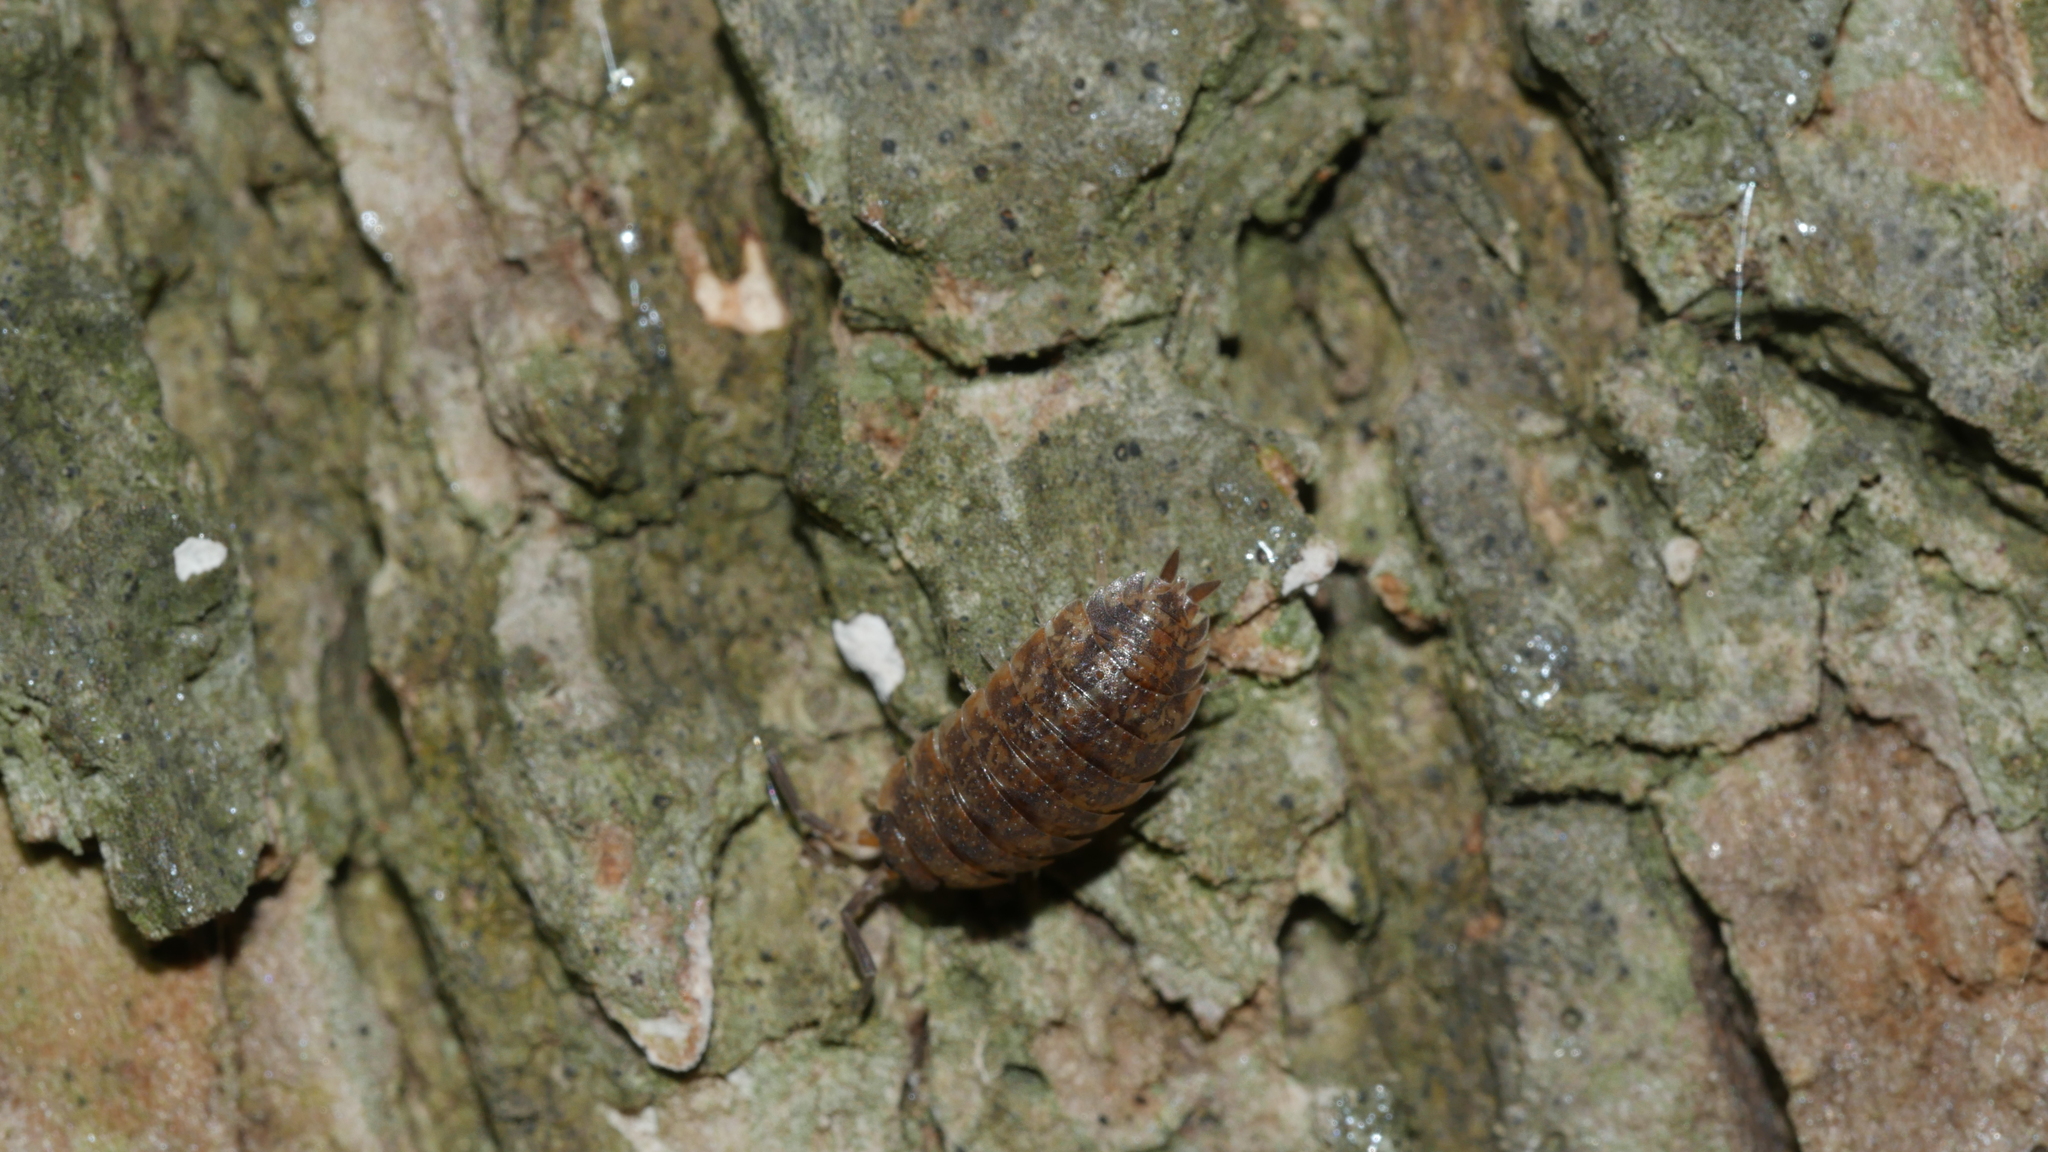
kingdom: Animalia
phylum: Arthropoda
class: Malacostraca
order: Isopoda
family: Porcellionidae
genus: Porcellio
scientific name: Porcellio scaber
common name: Common rough woodlouse
